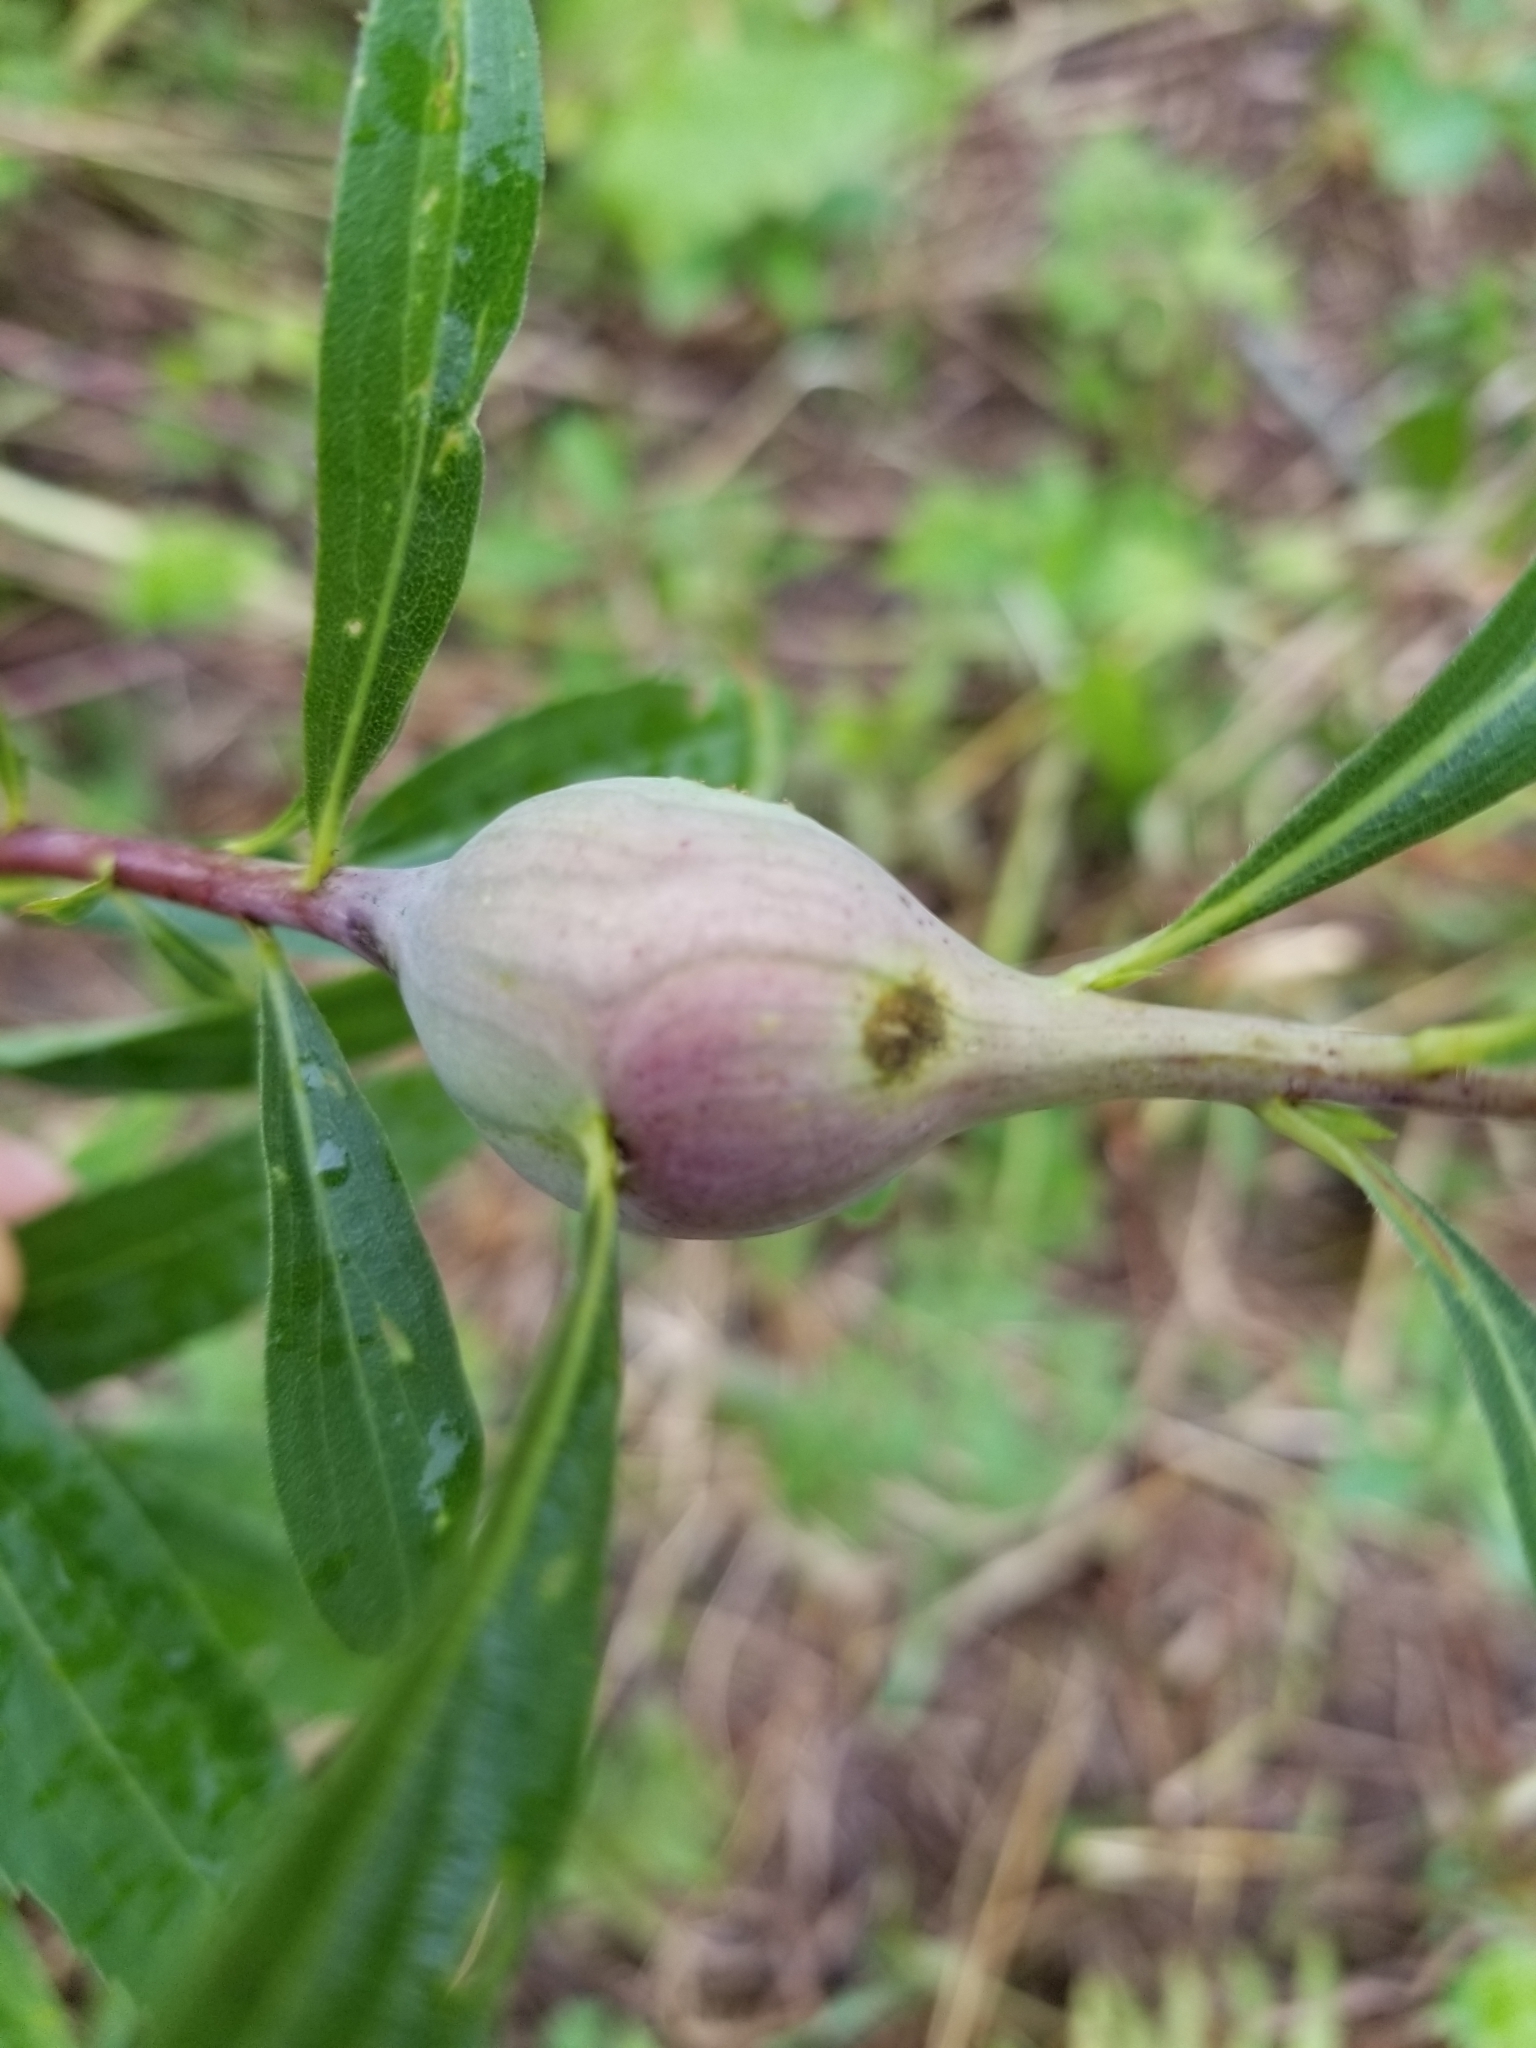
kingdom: Animalia
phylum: Arthropoda
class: Insecta
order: Diptera
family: Tephritidae
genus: Eurosta
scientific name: Eurosta solidaginis
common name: Goldenrod gall fly
